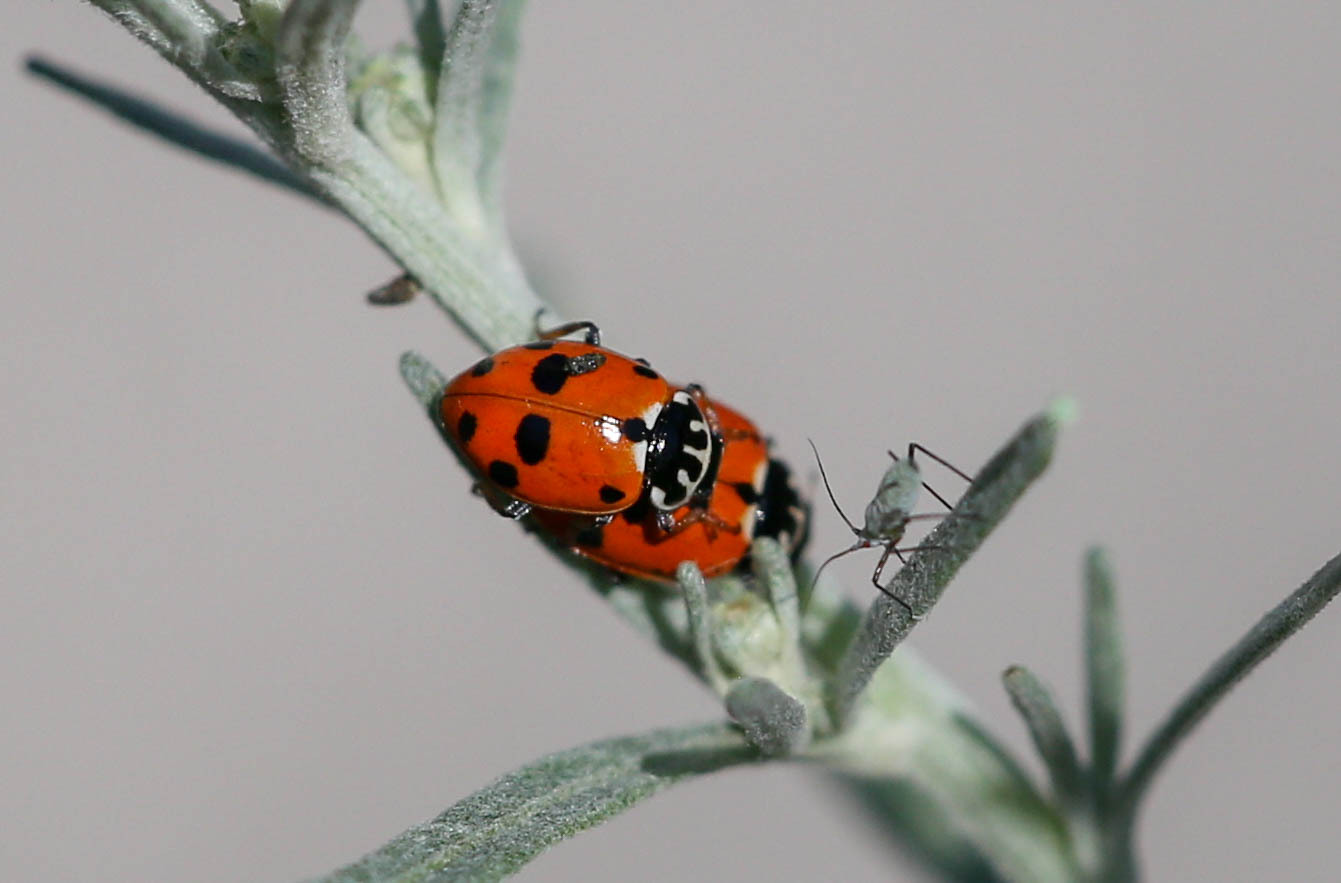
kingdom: Animalia
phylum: Arthropoda
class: Insecta
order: Coleoptera
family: Coccinellidae
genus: Hippodamia
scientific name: Hippodamia variegata
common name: Ladybird beetle
